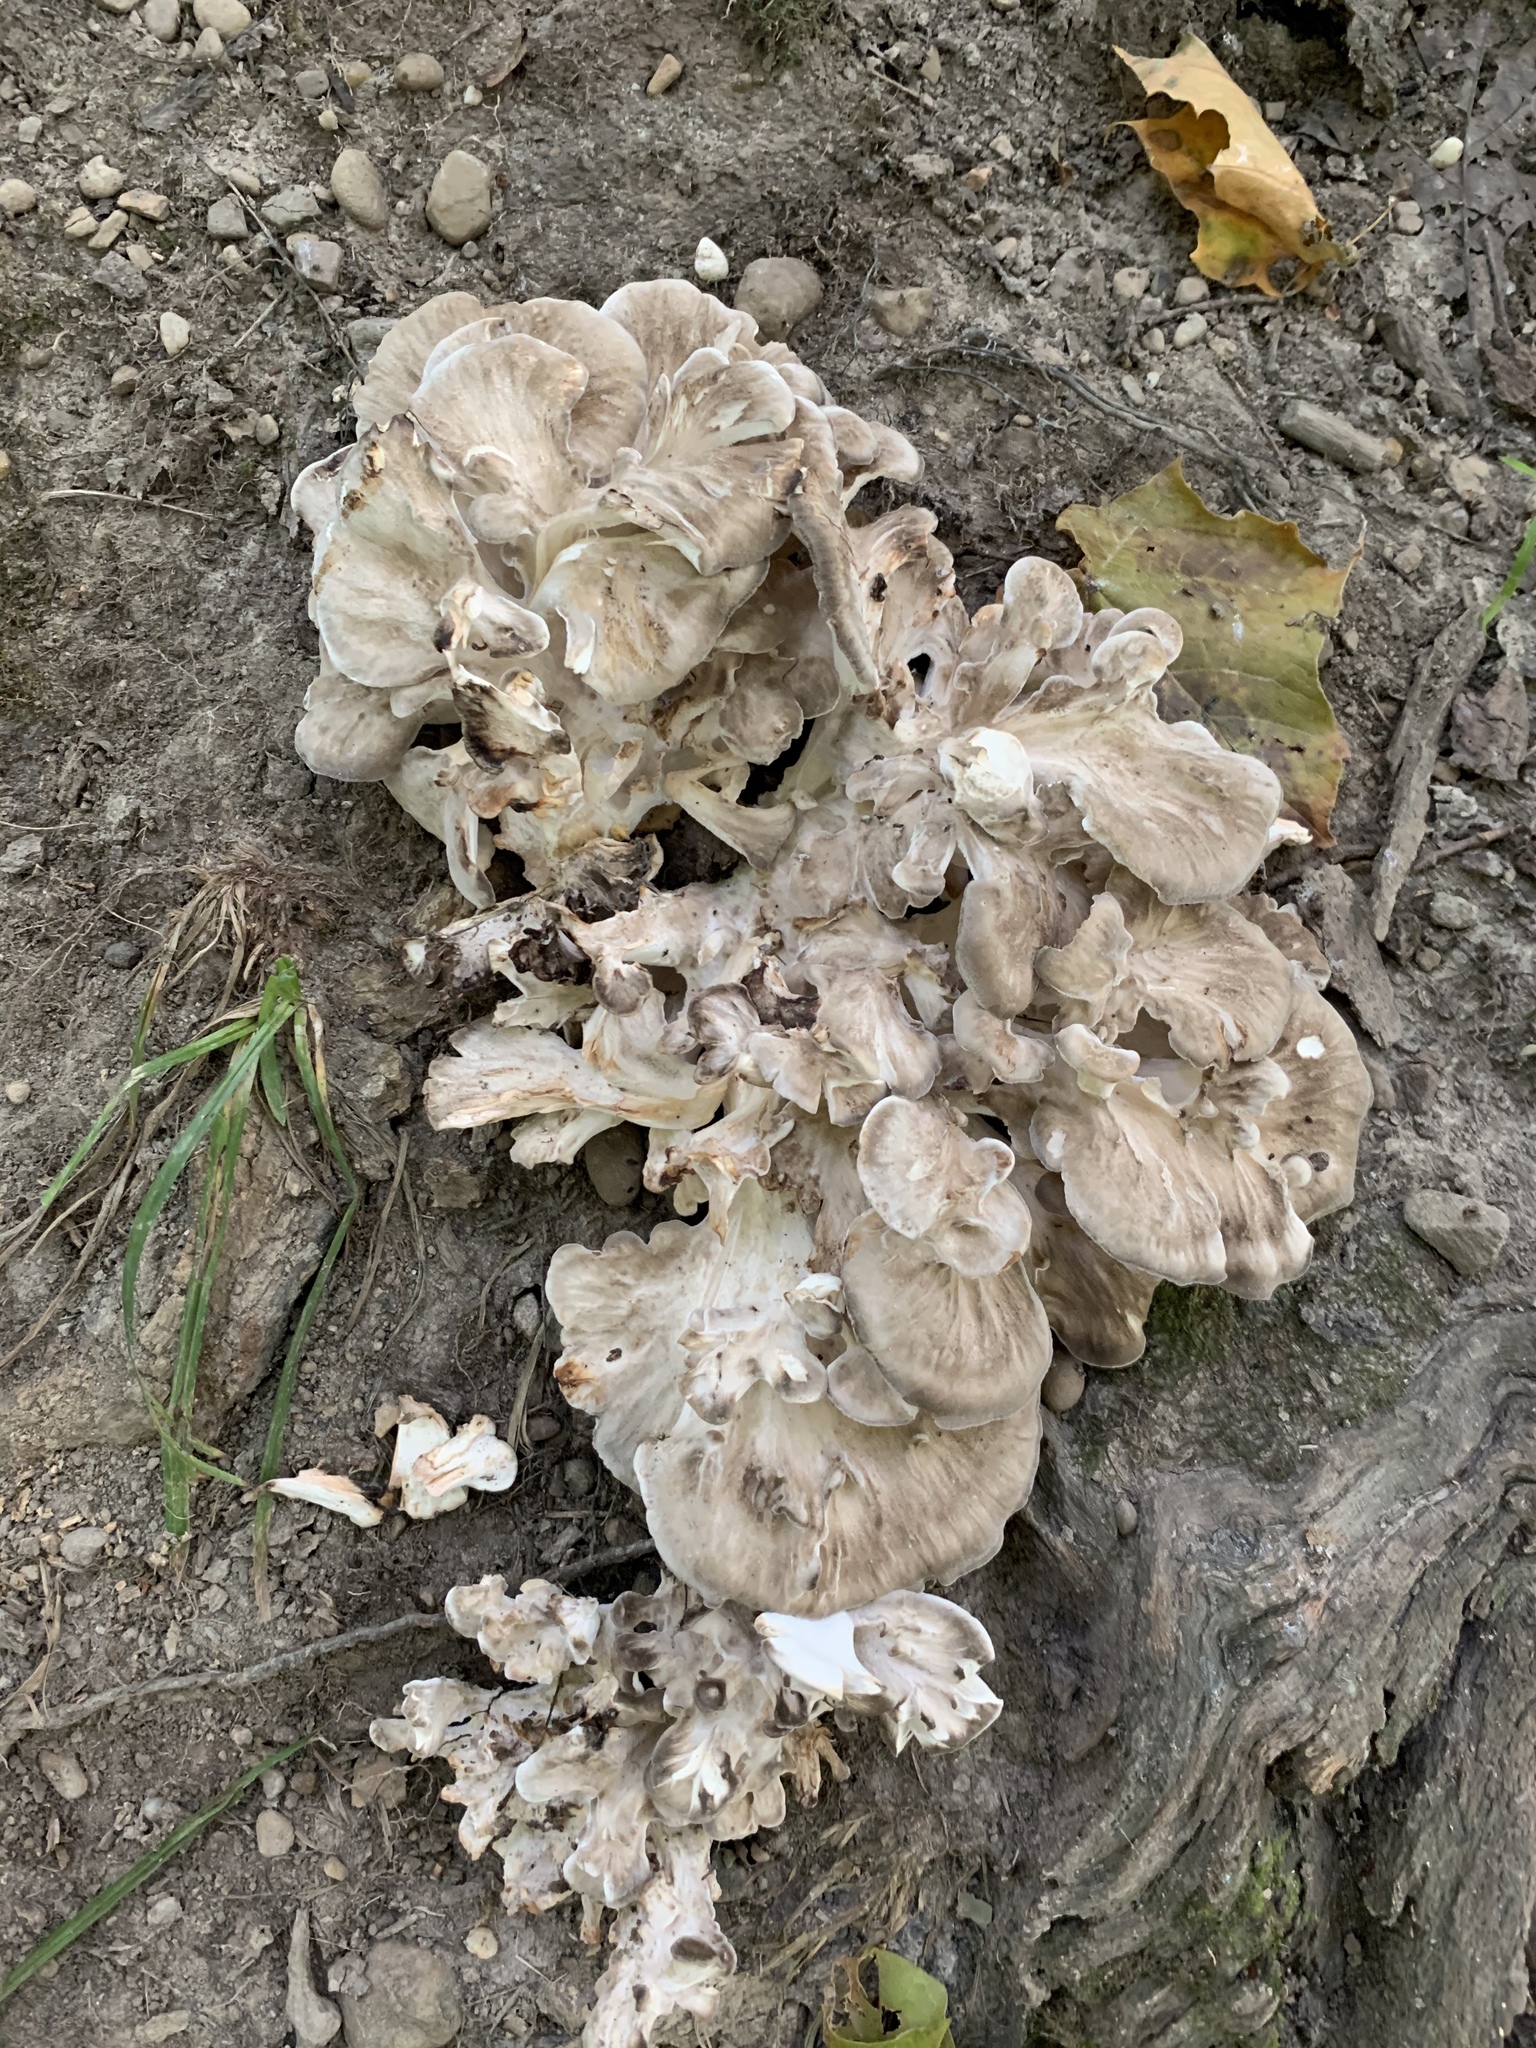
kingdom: Fungi
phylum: Basidiomycota
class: Agaricomycetes
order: Polyporales
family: Grifolaceae
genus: Grifola
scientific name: Grifola frondosa
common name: Hen of the woods
